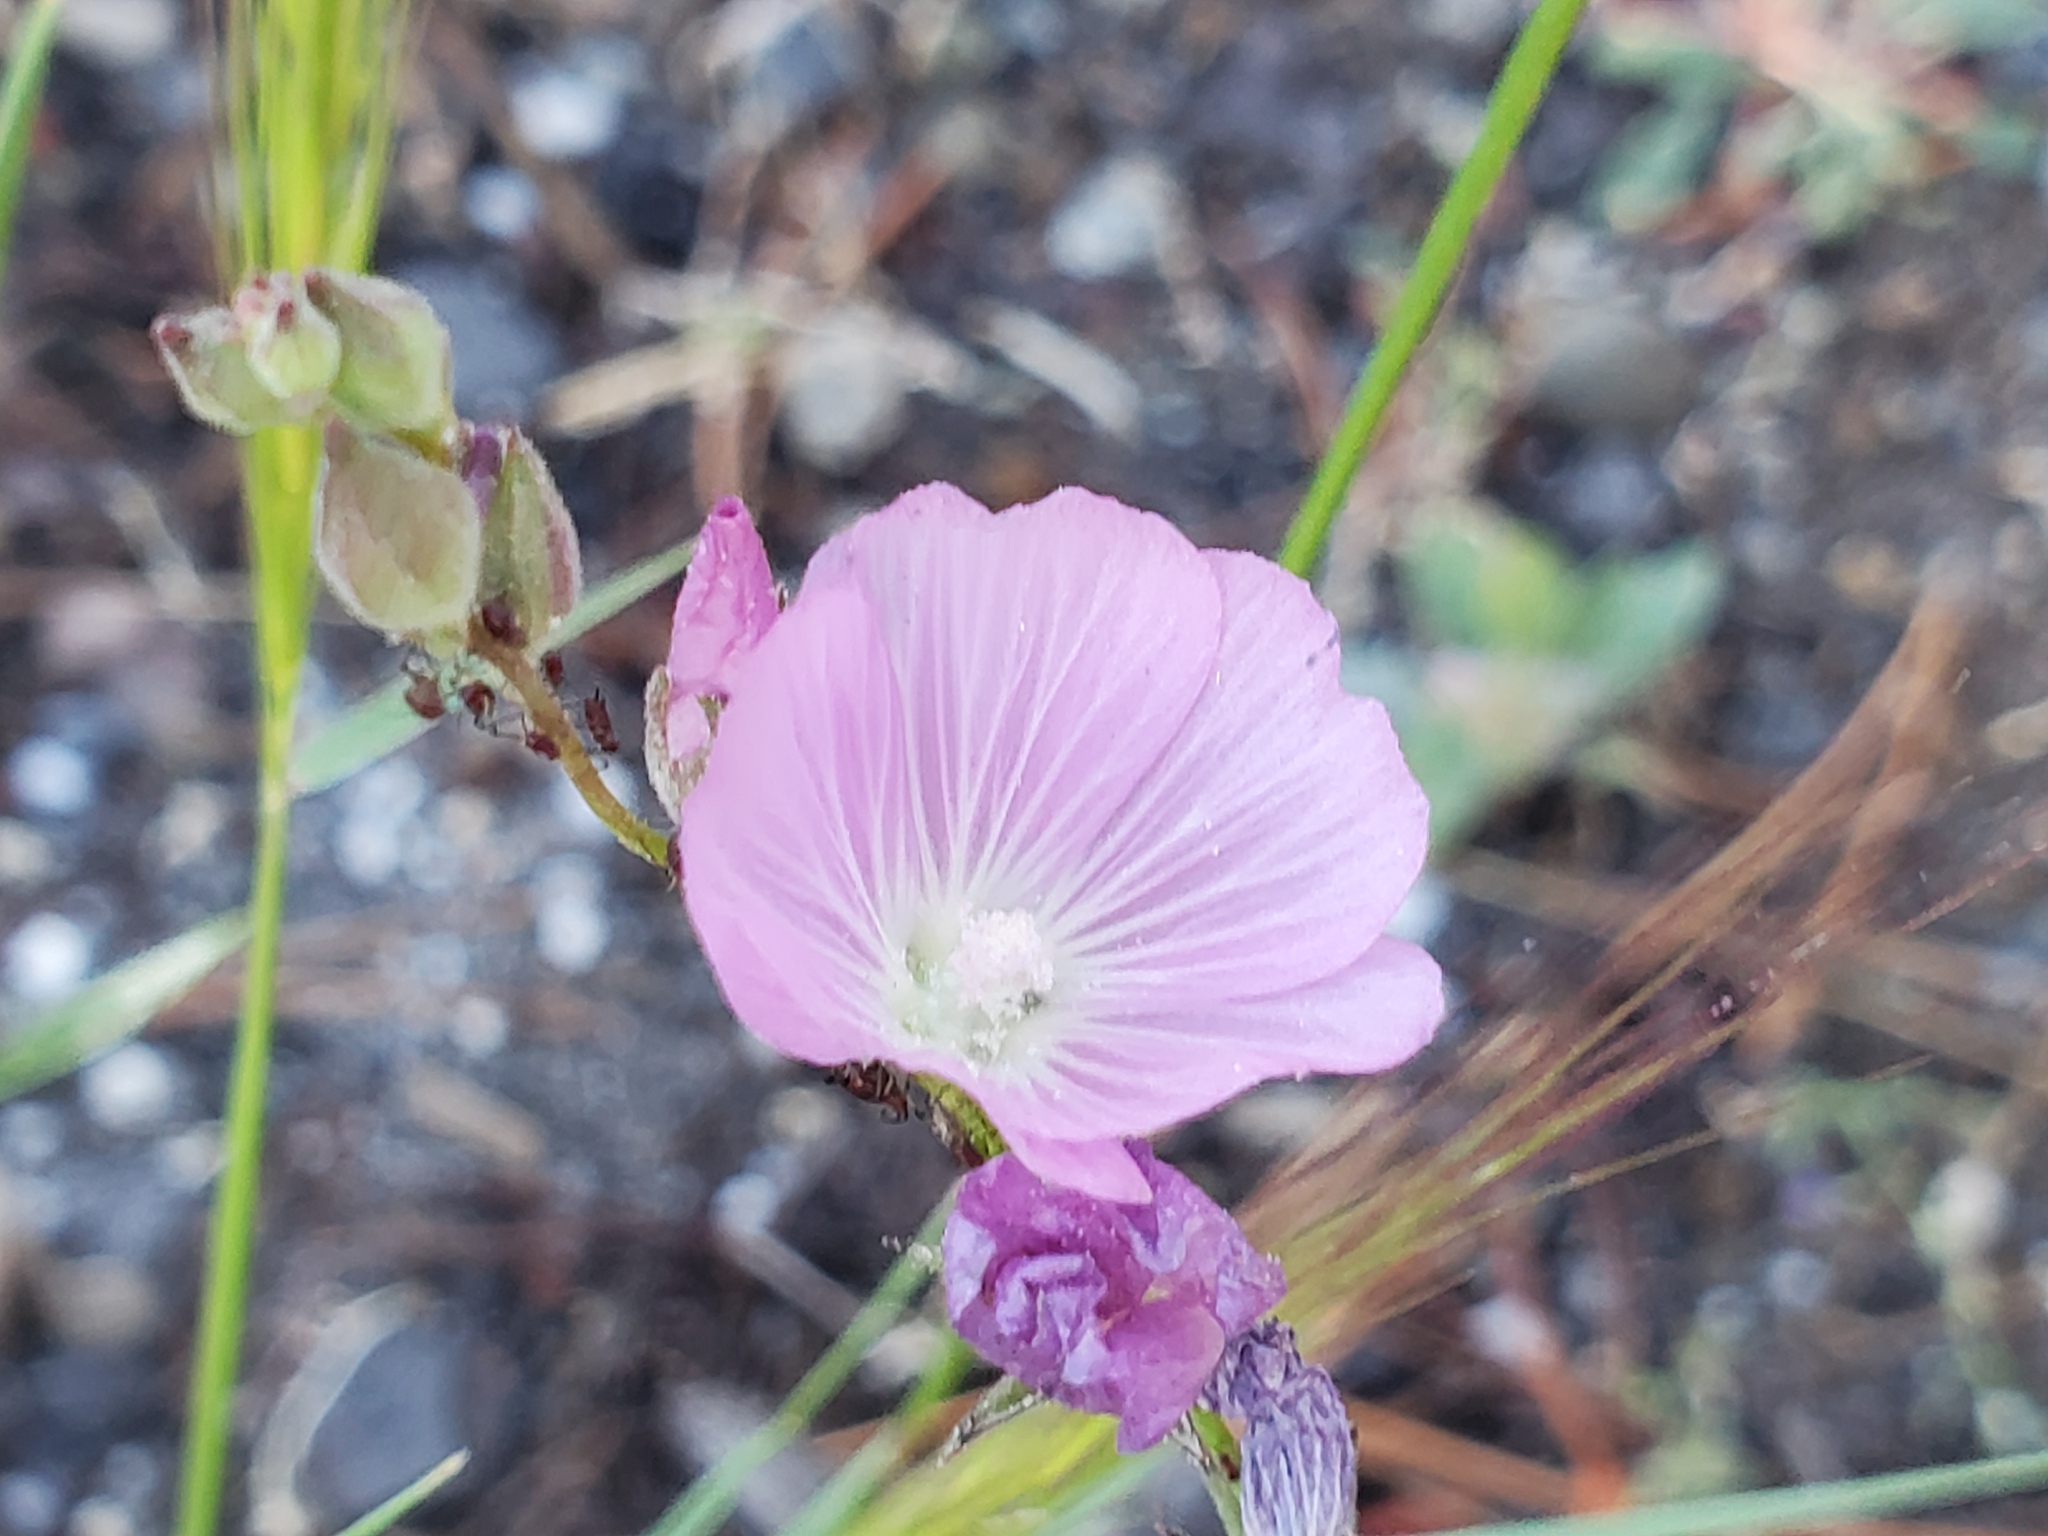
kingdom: Plantae
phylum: Tracheophyta
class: Magnoliopsida
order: Malvales
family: Malvaceae
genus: Sidalcea
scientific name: Sidalcea glaucescens
